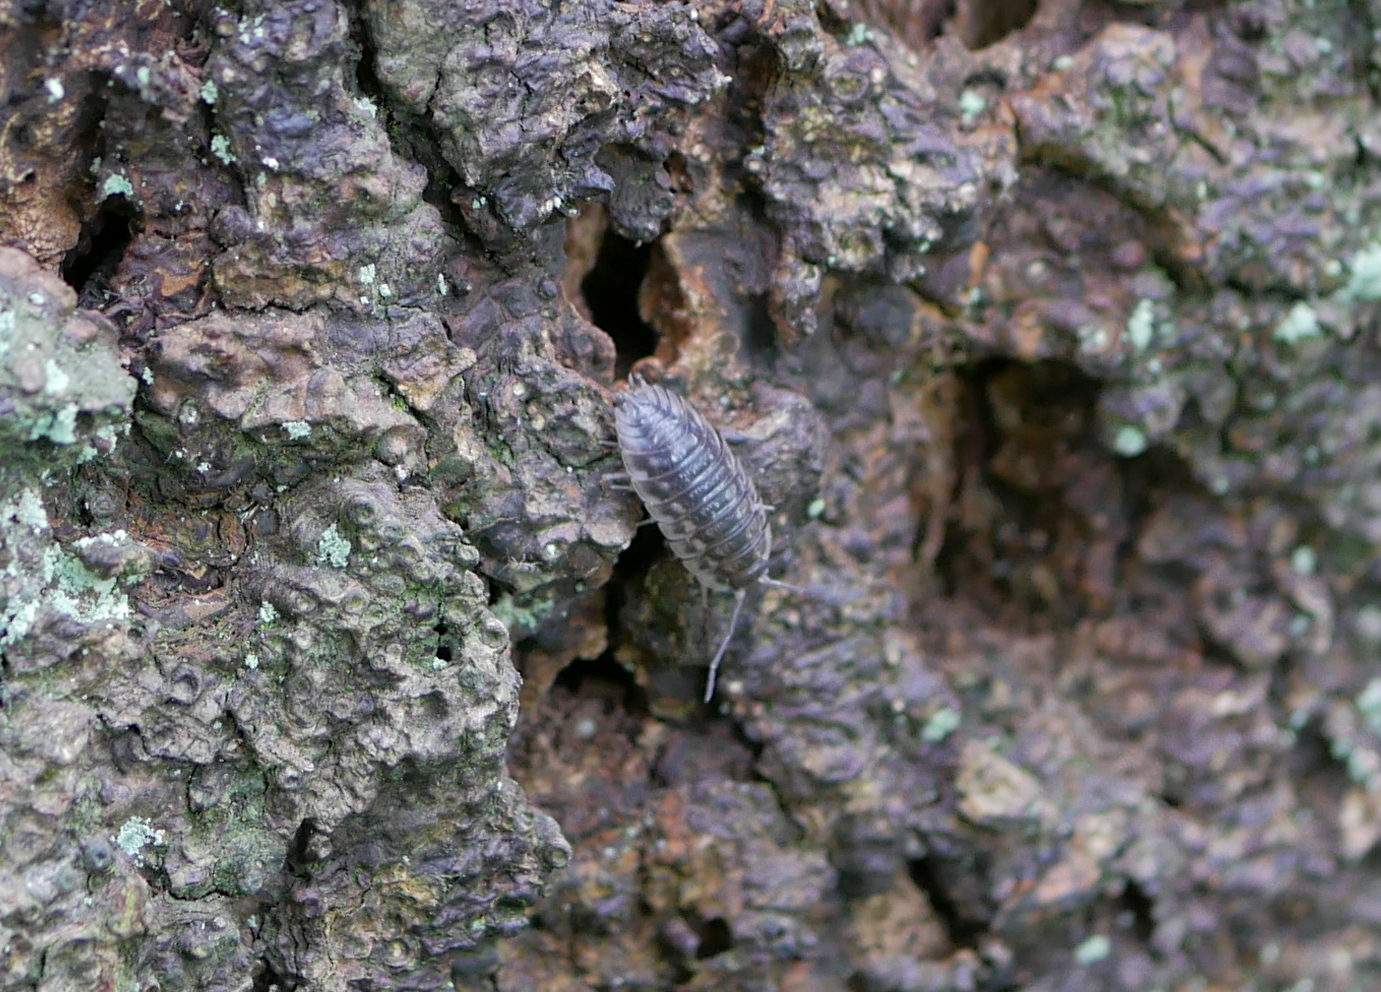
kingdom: Animalia
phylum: Arthropoda
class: Malacostraca
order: Isopoda
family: Oniscidae
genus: Oniscus
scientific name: Oniscus asellus
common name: Common shiny woodlouse
